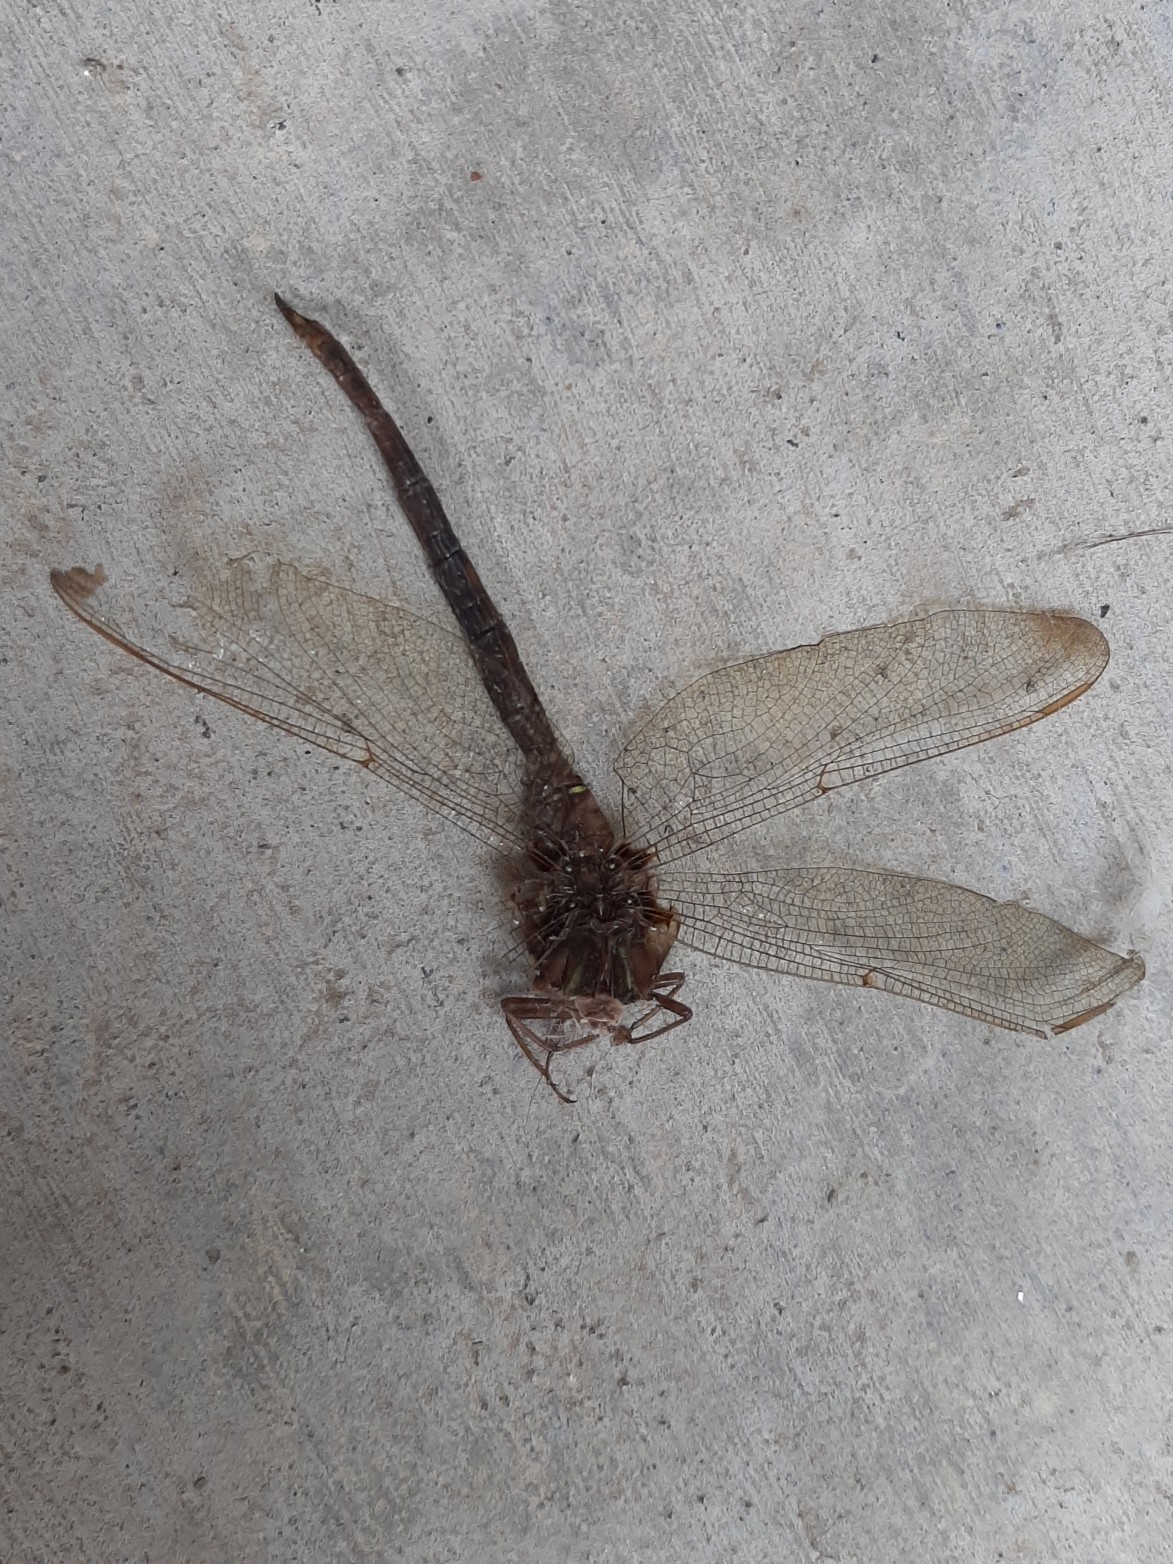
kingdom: Animalia
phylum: Arthropoda
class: Insecta
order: Odonata
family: Aeshnidae
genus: Boyeria
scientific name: Boyeria vinosa
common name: Fawn darner
